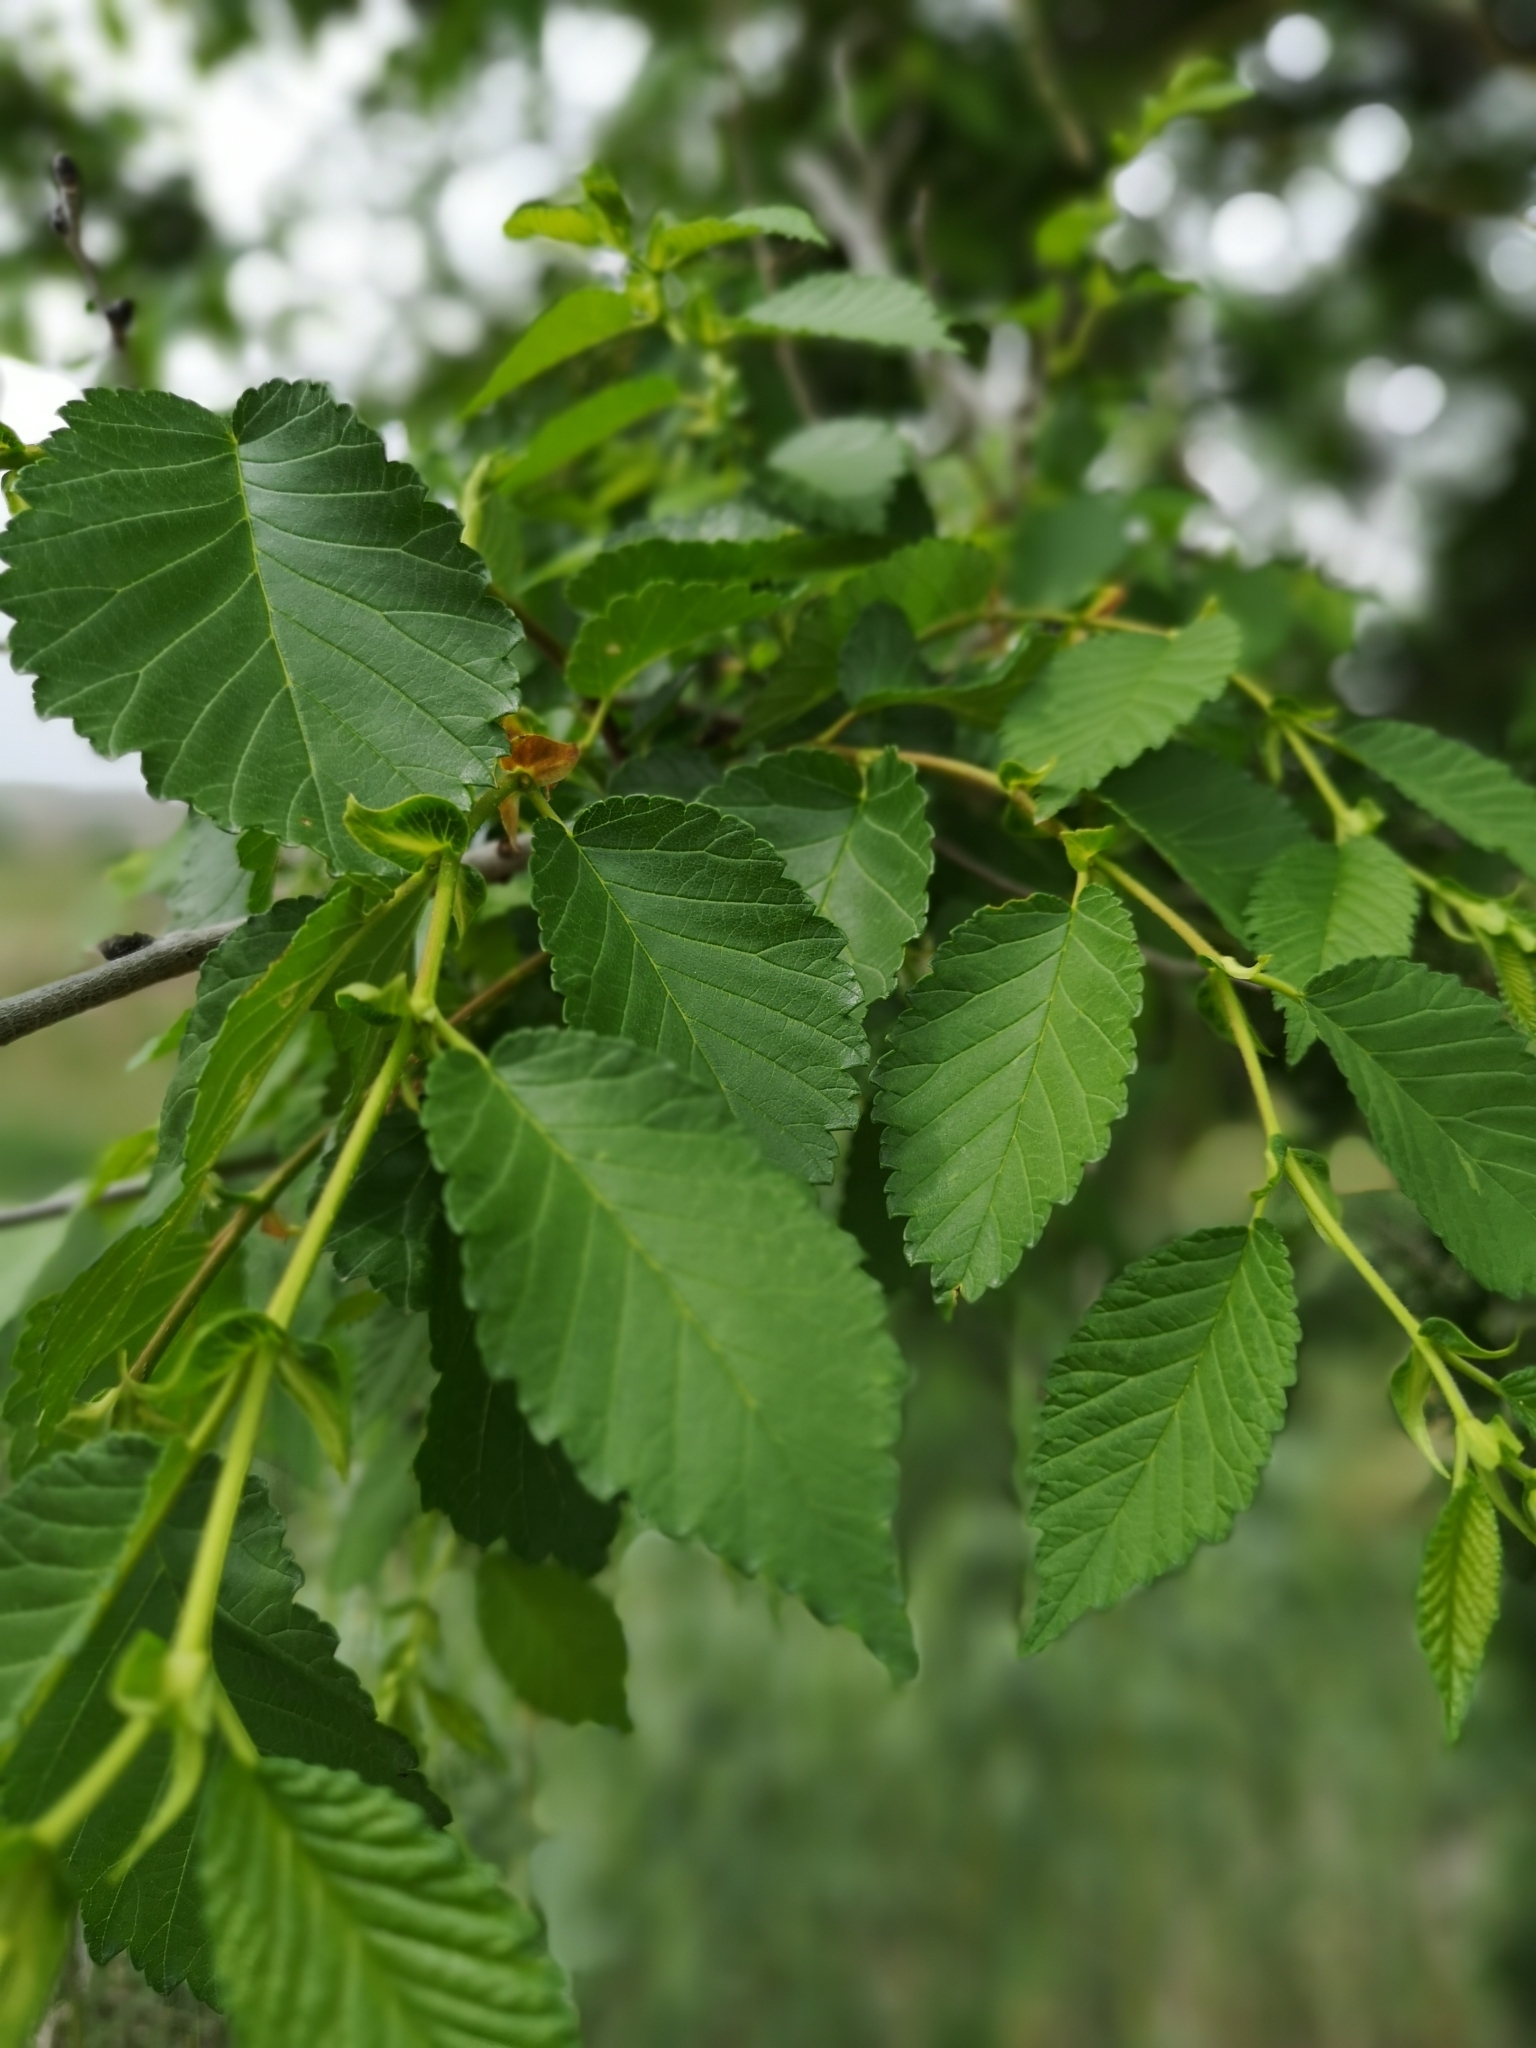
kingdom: Plantae
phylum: Tracheophyta
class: Magnoliopsida
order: Rosales
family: Ulmaceae
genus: Ulmus
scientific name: Ulmus pumila
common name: Siberian elm
